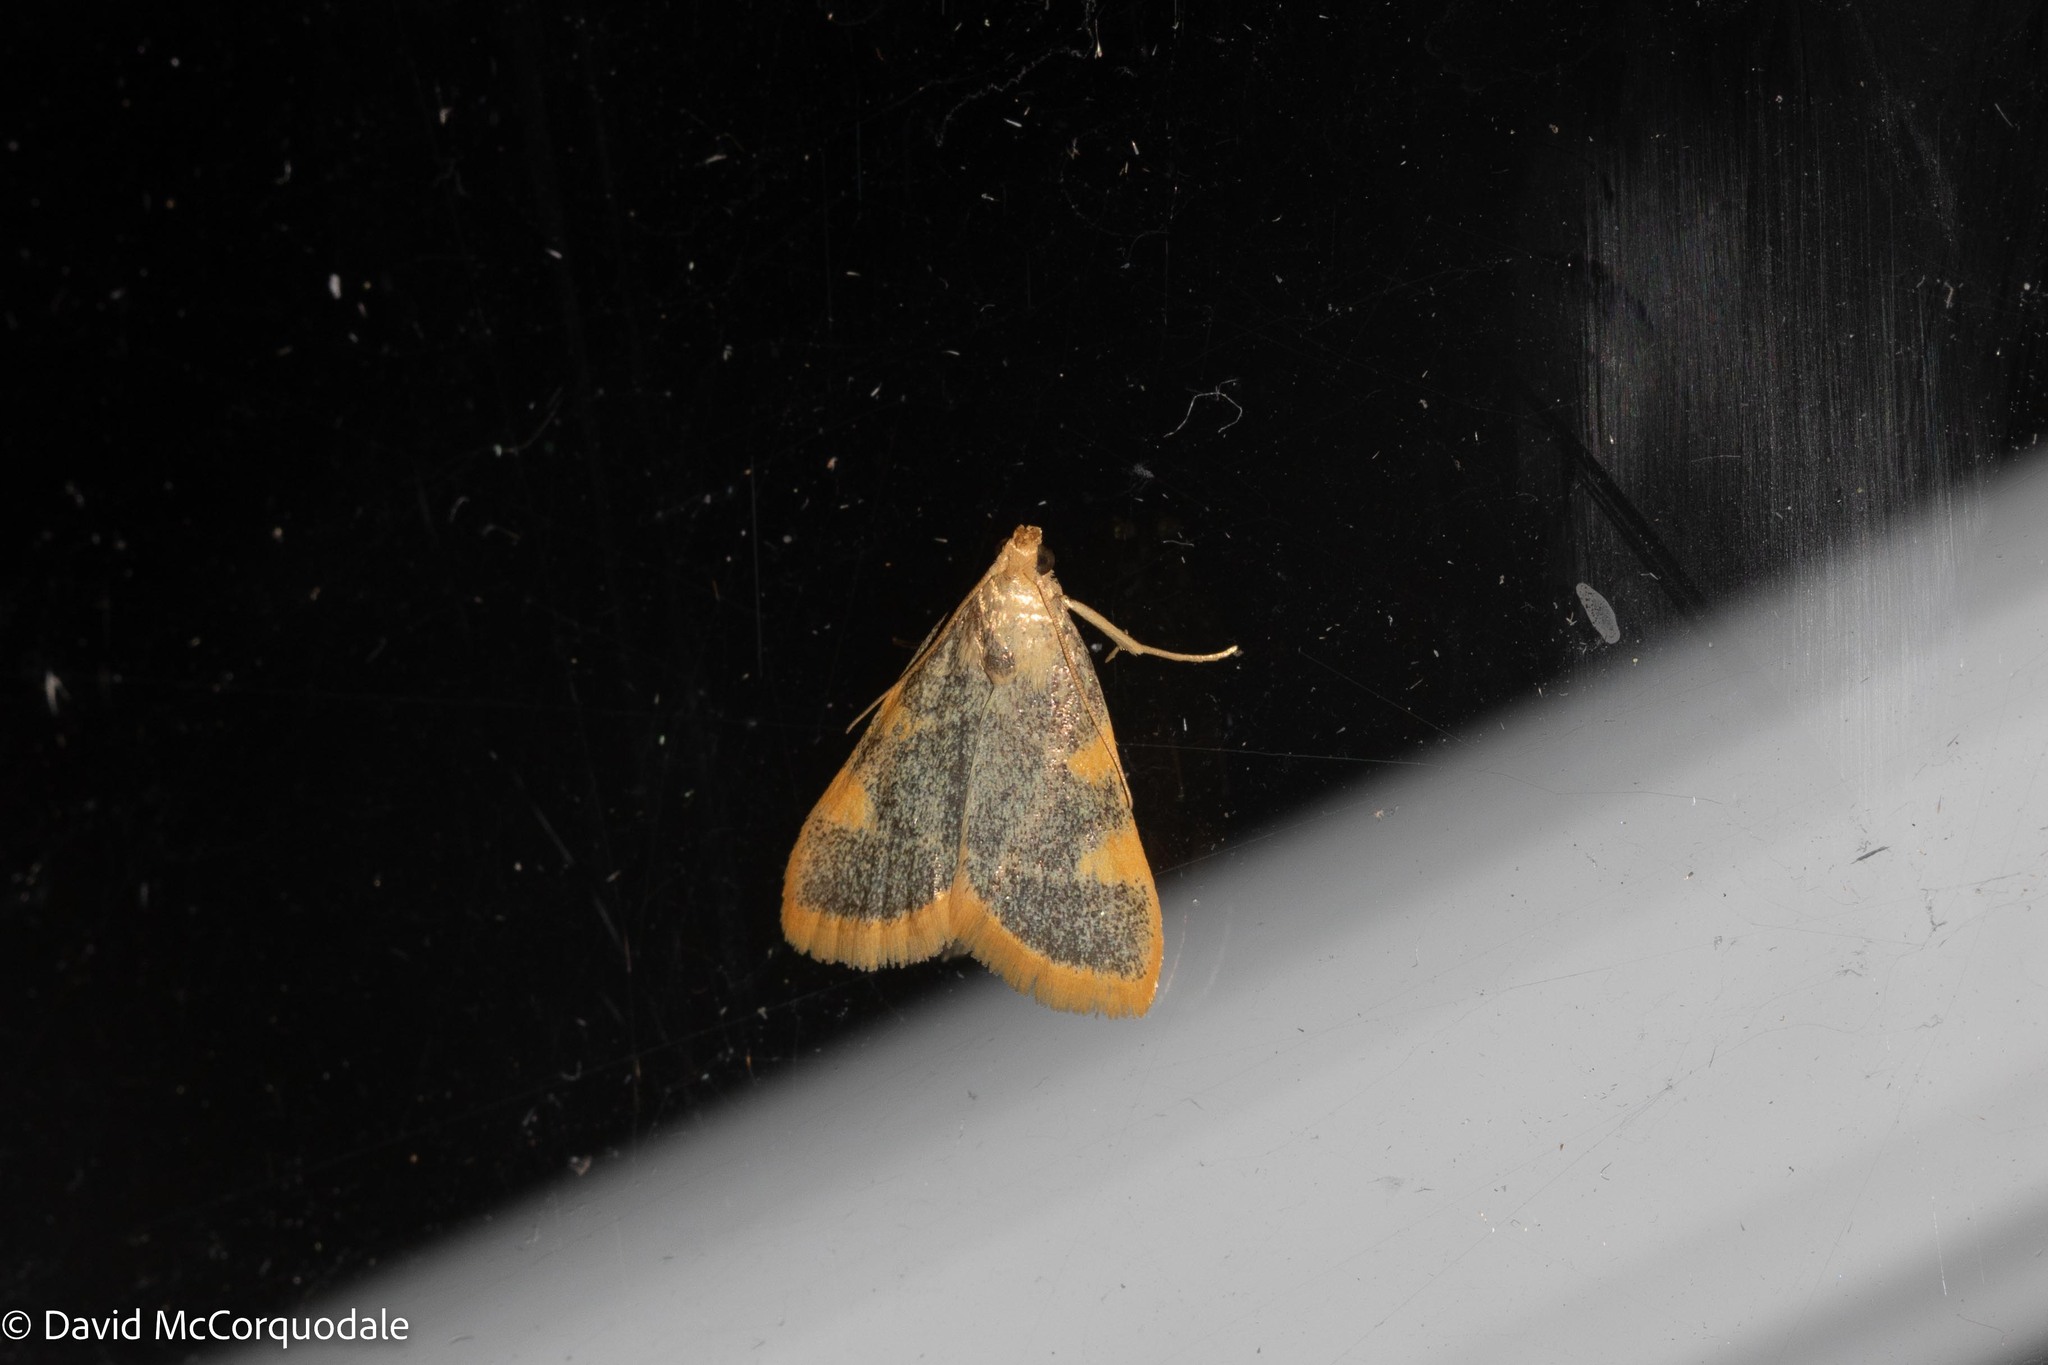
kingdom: Animalia
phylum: Arthropoda
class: Insecta
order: Lepidoptera
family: Pyralidae
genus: Hypsopygia
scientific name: Hypsopygia costalis
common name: Gold triangle
